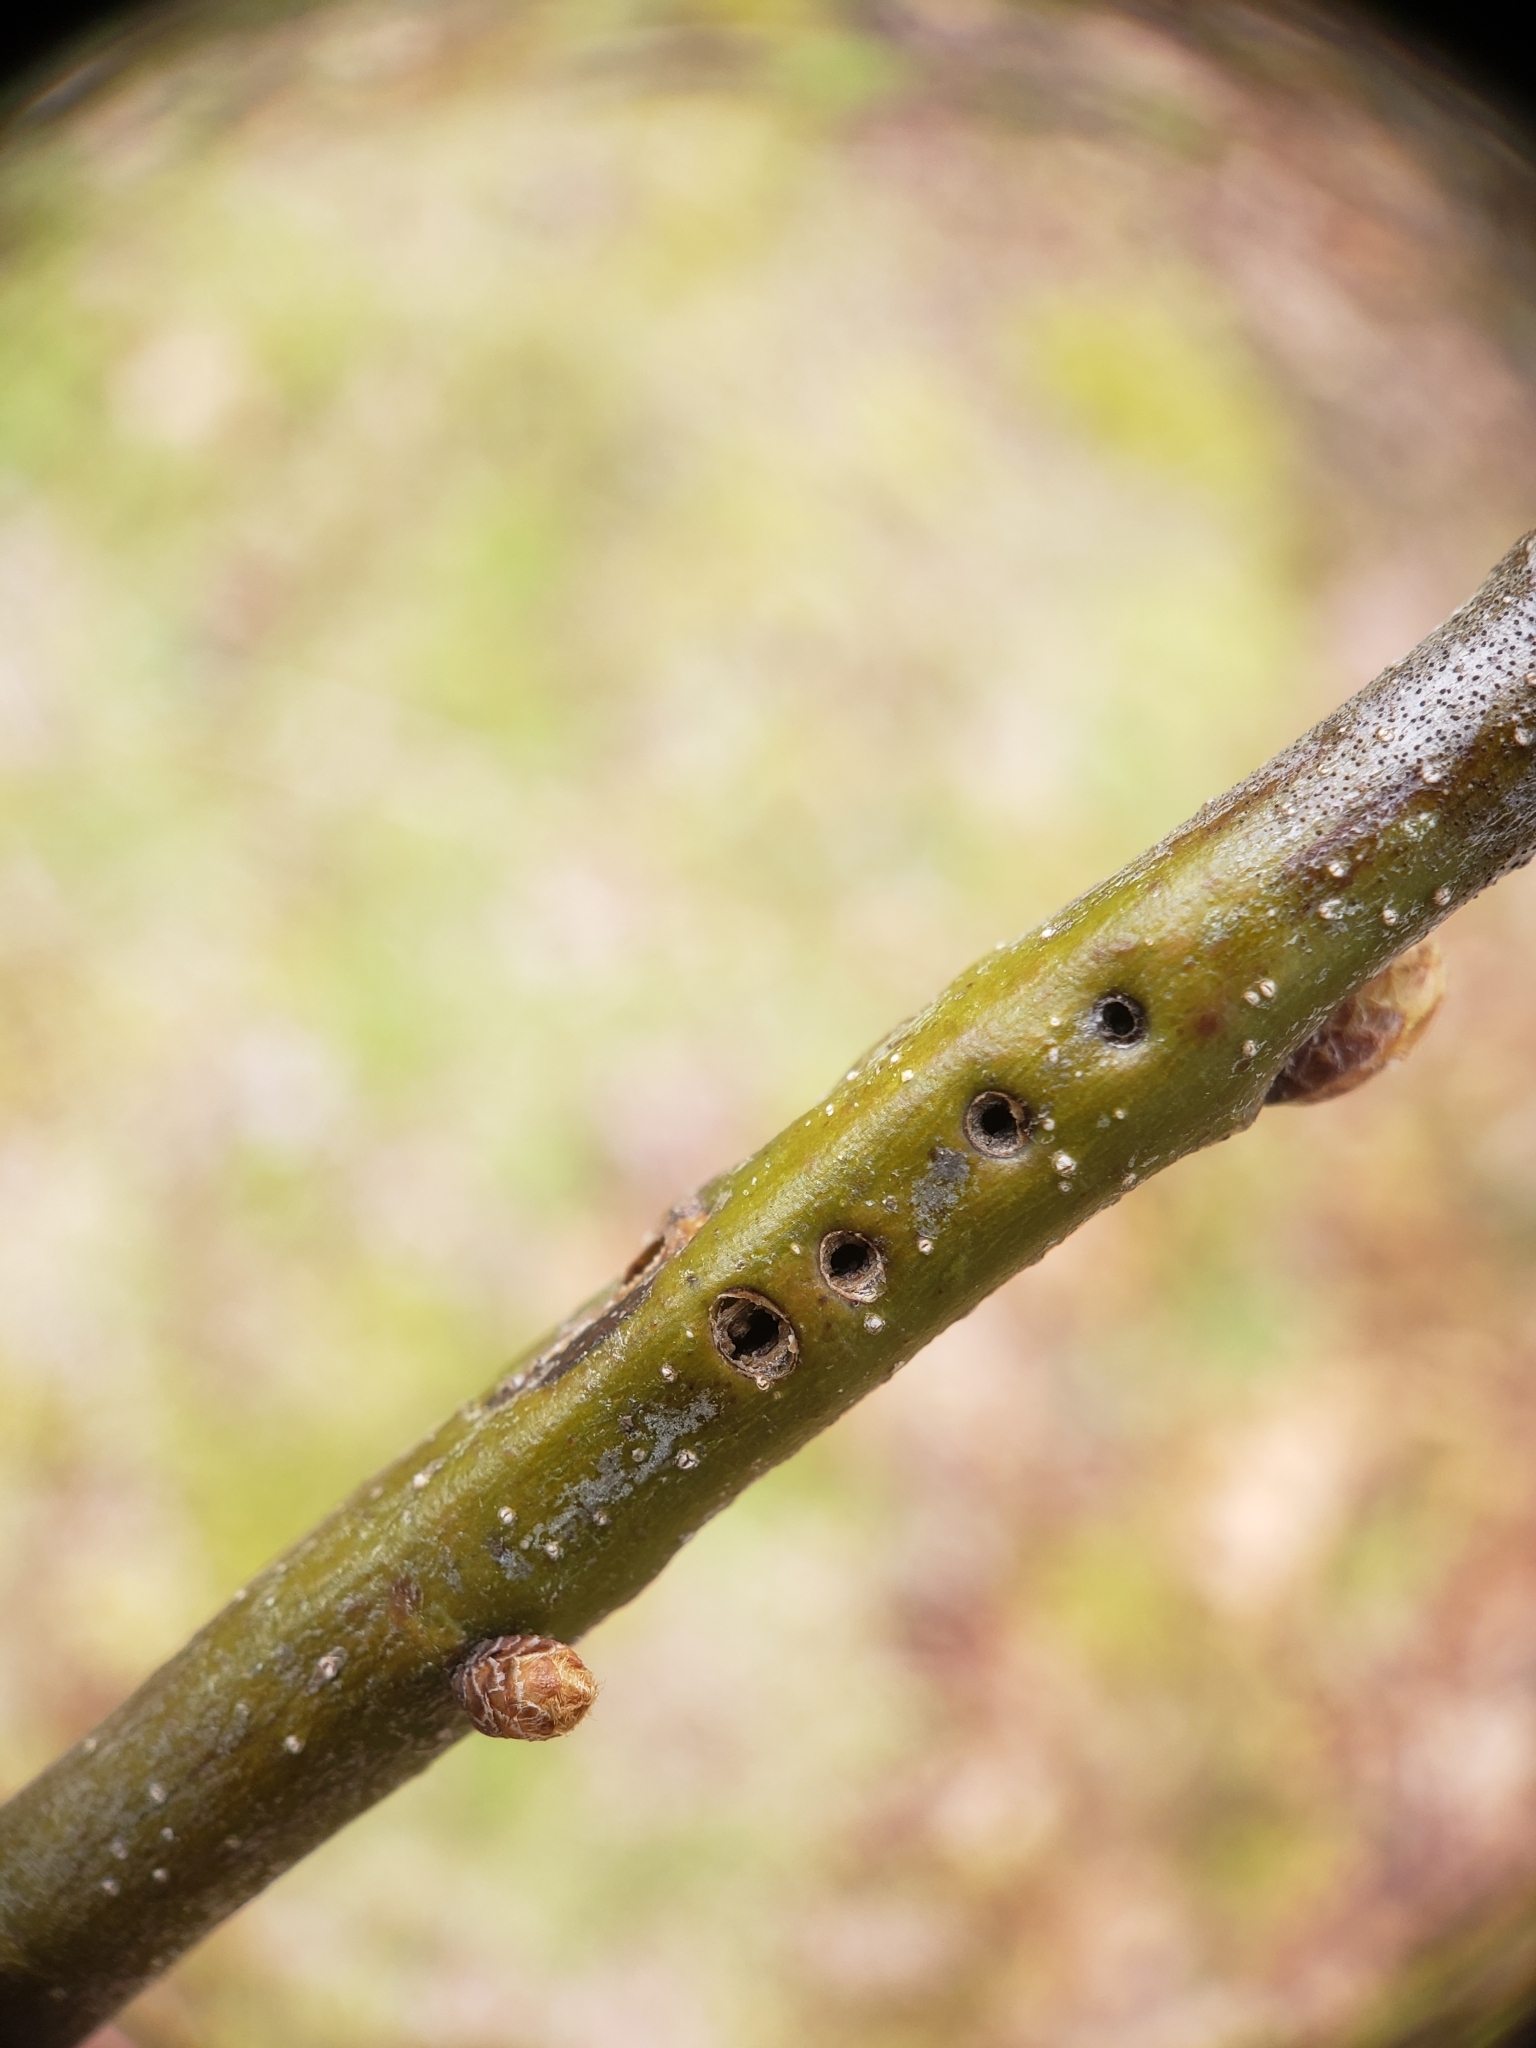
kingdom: Animalia
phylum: Arthropoda
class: Insecta
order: Hymenoptera
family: Cynipidae
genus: Callirhytis
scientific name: Callirhytis
